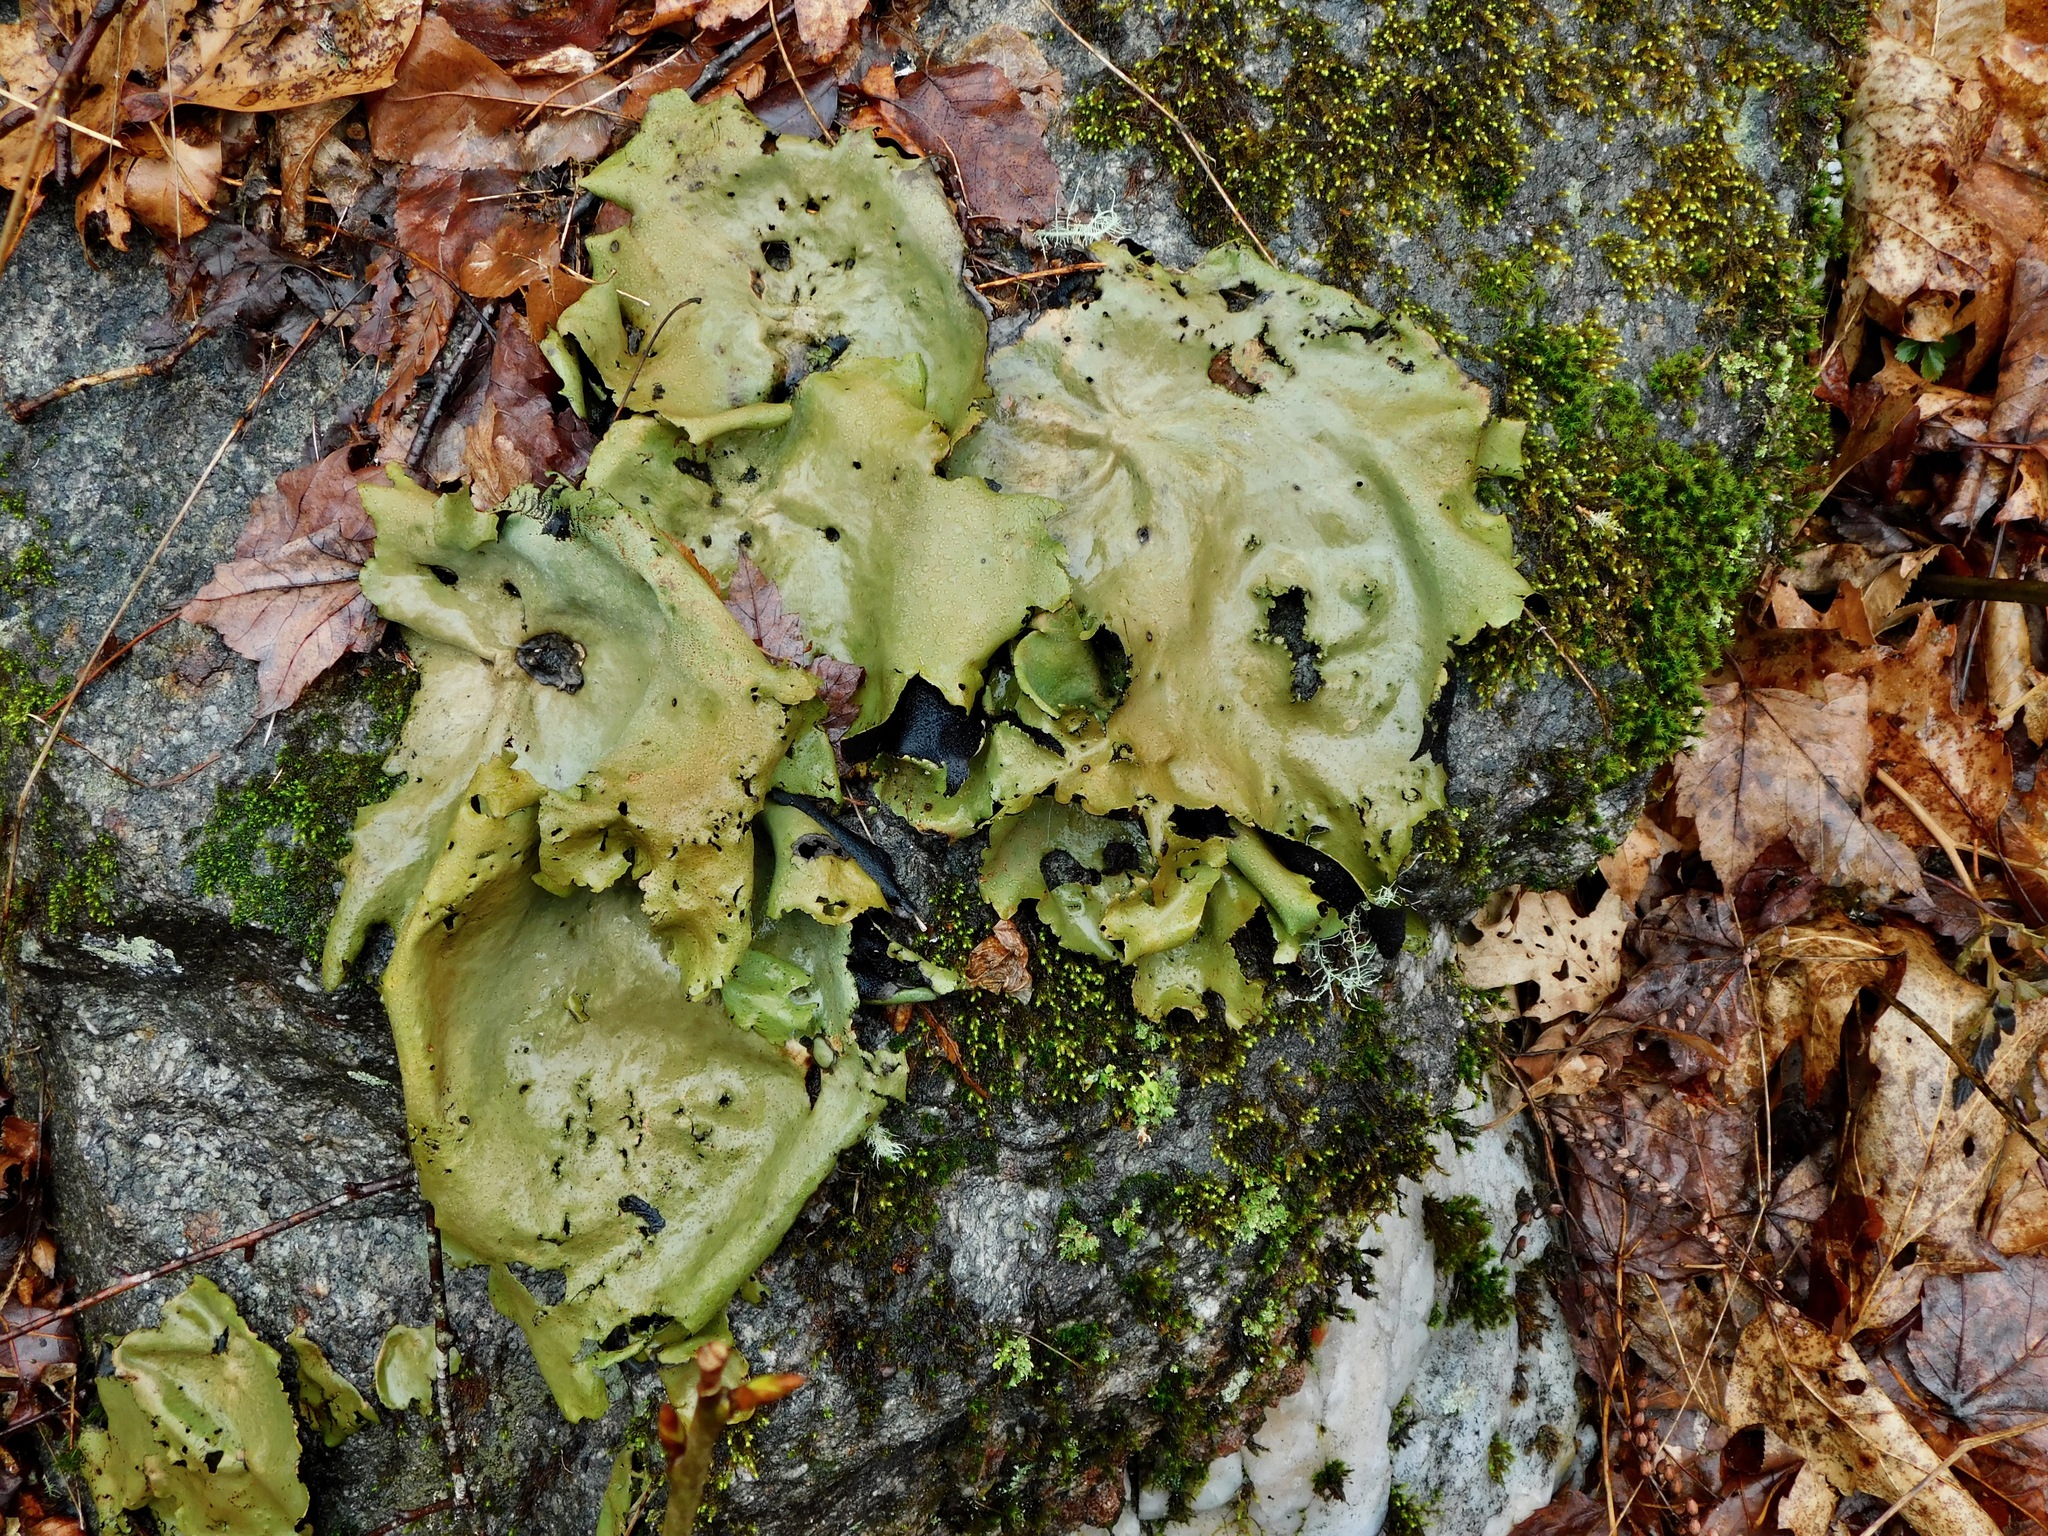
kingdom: Fungi
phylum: Ascomycota
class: Lecanoromycetes
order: Umbilicariales
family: Umbilicariaceae
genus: Umbilicaria
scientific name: Umbilicaria mammulata
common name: Smooth rock tripe
